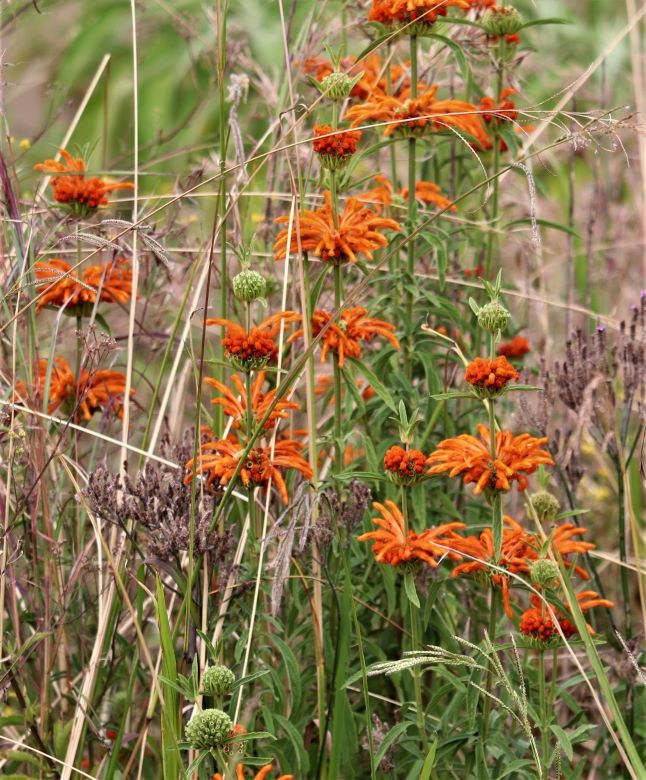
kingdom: Plantae
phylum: Tracheophyta
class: Magnoliopsida
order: Lamiales
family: Lamiaceae
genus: Leonotis
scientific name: Leonotis leonurus
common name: Lion's ear
